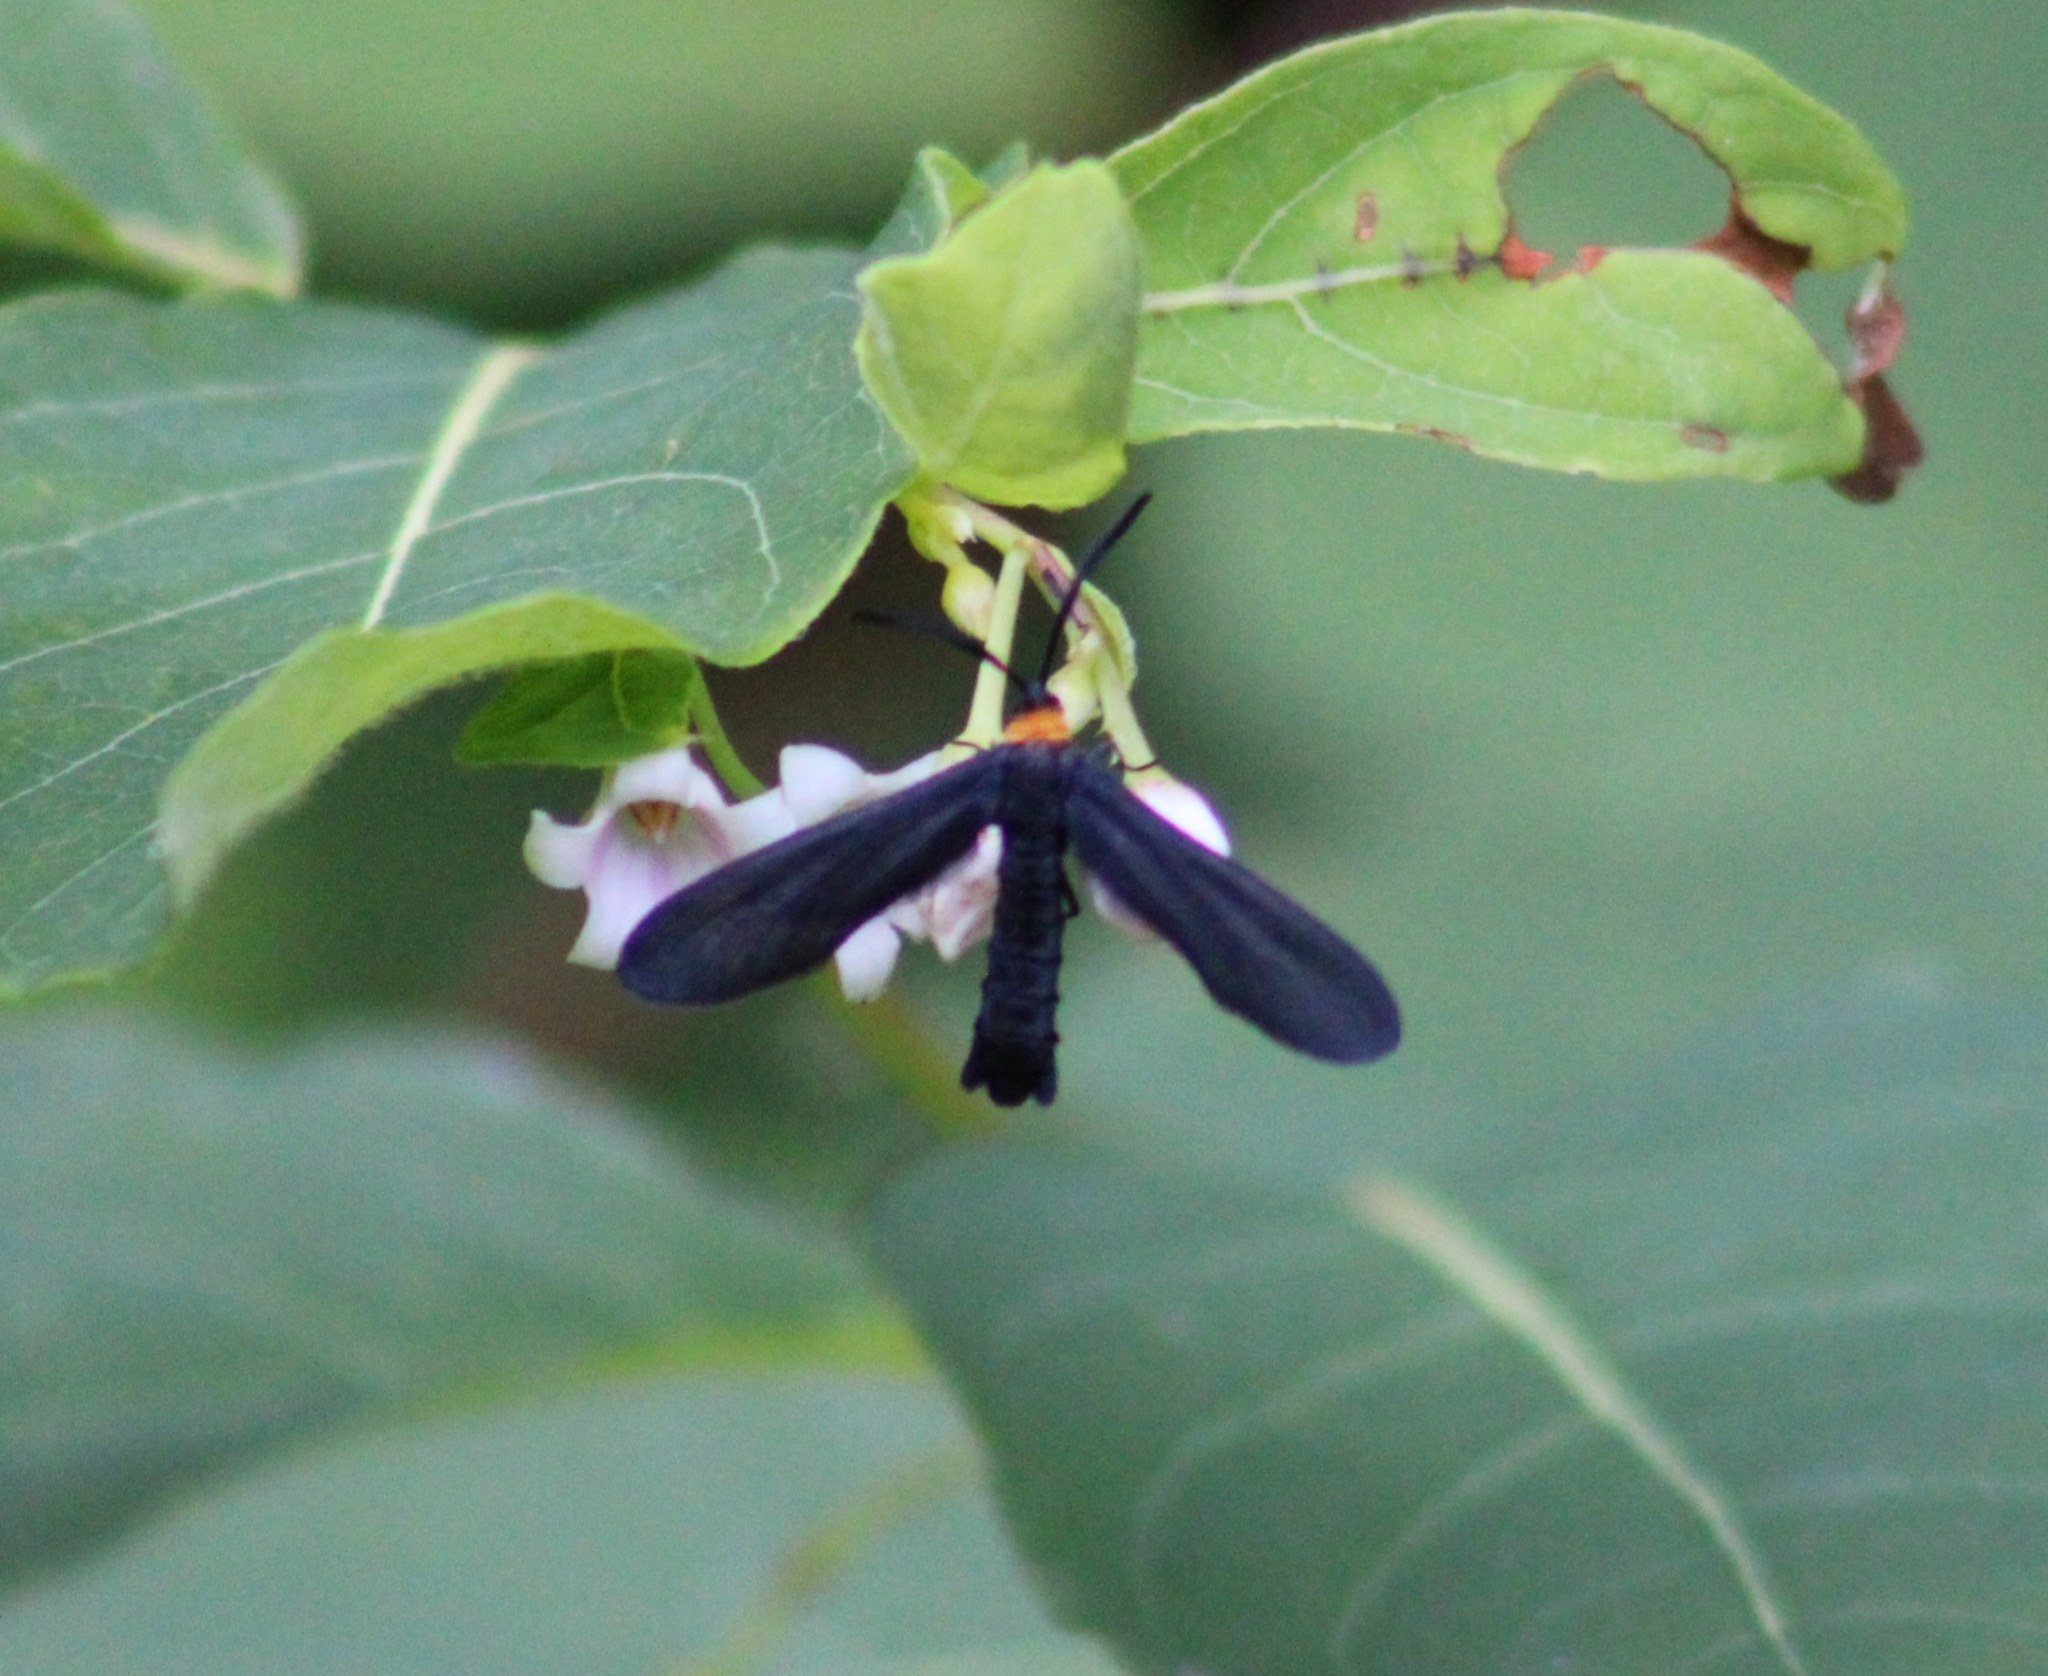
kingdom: Animalia
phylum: Arthropoda
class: Insecta
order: Lepidoptera
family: Zygaenidae
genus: Harrisina
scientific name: Harrisina americana
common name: Grapeleaf skeletonizer moth
